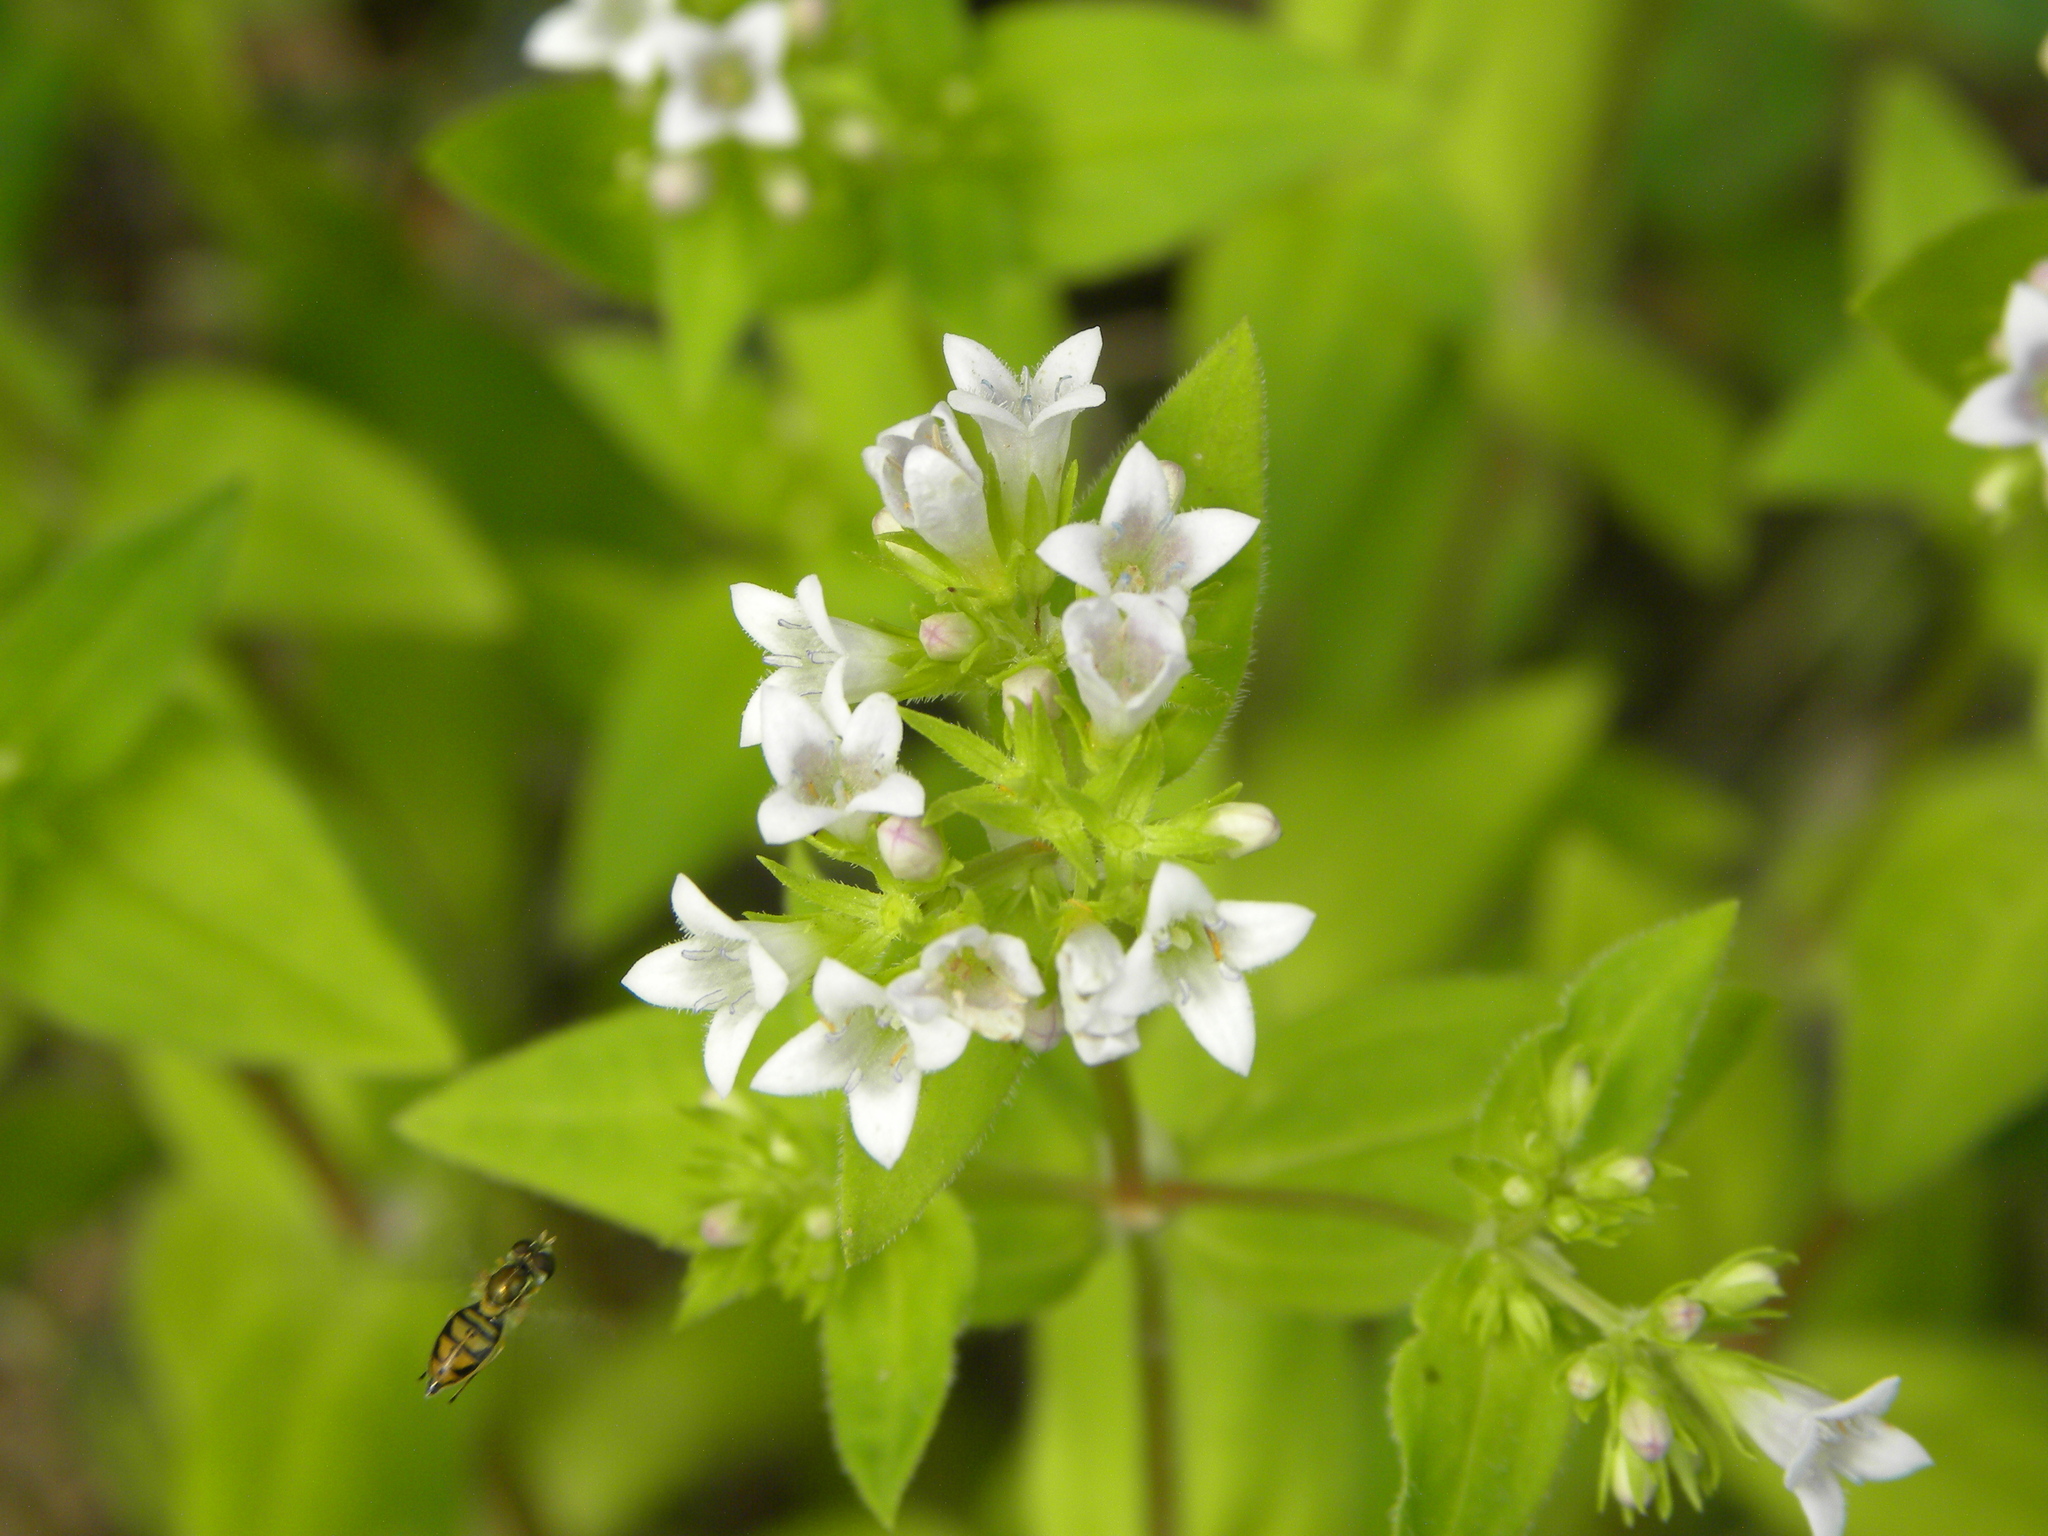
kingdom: Plantae
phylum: Tracheophyta
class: Magnoliopsida
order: Gentianales
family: Rubiaceae
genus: Houstonia
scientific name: Houstonia purpurea
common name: Summer bluet
